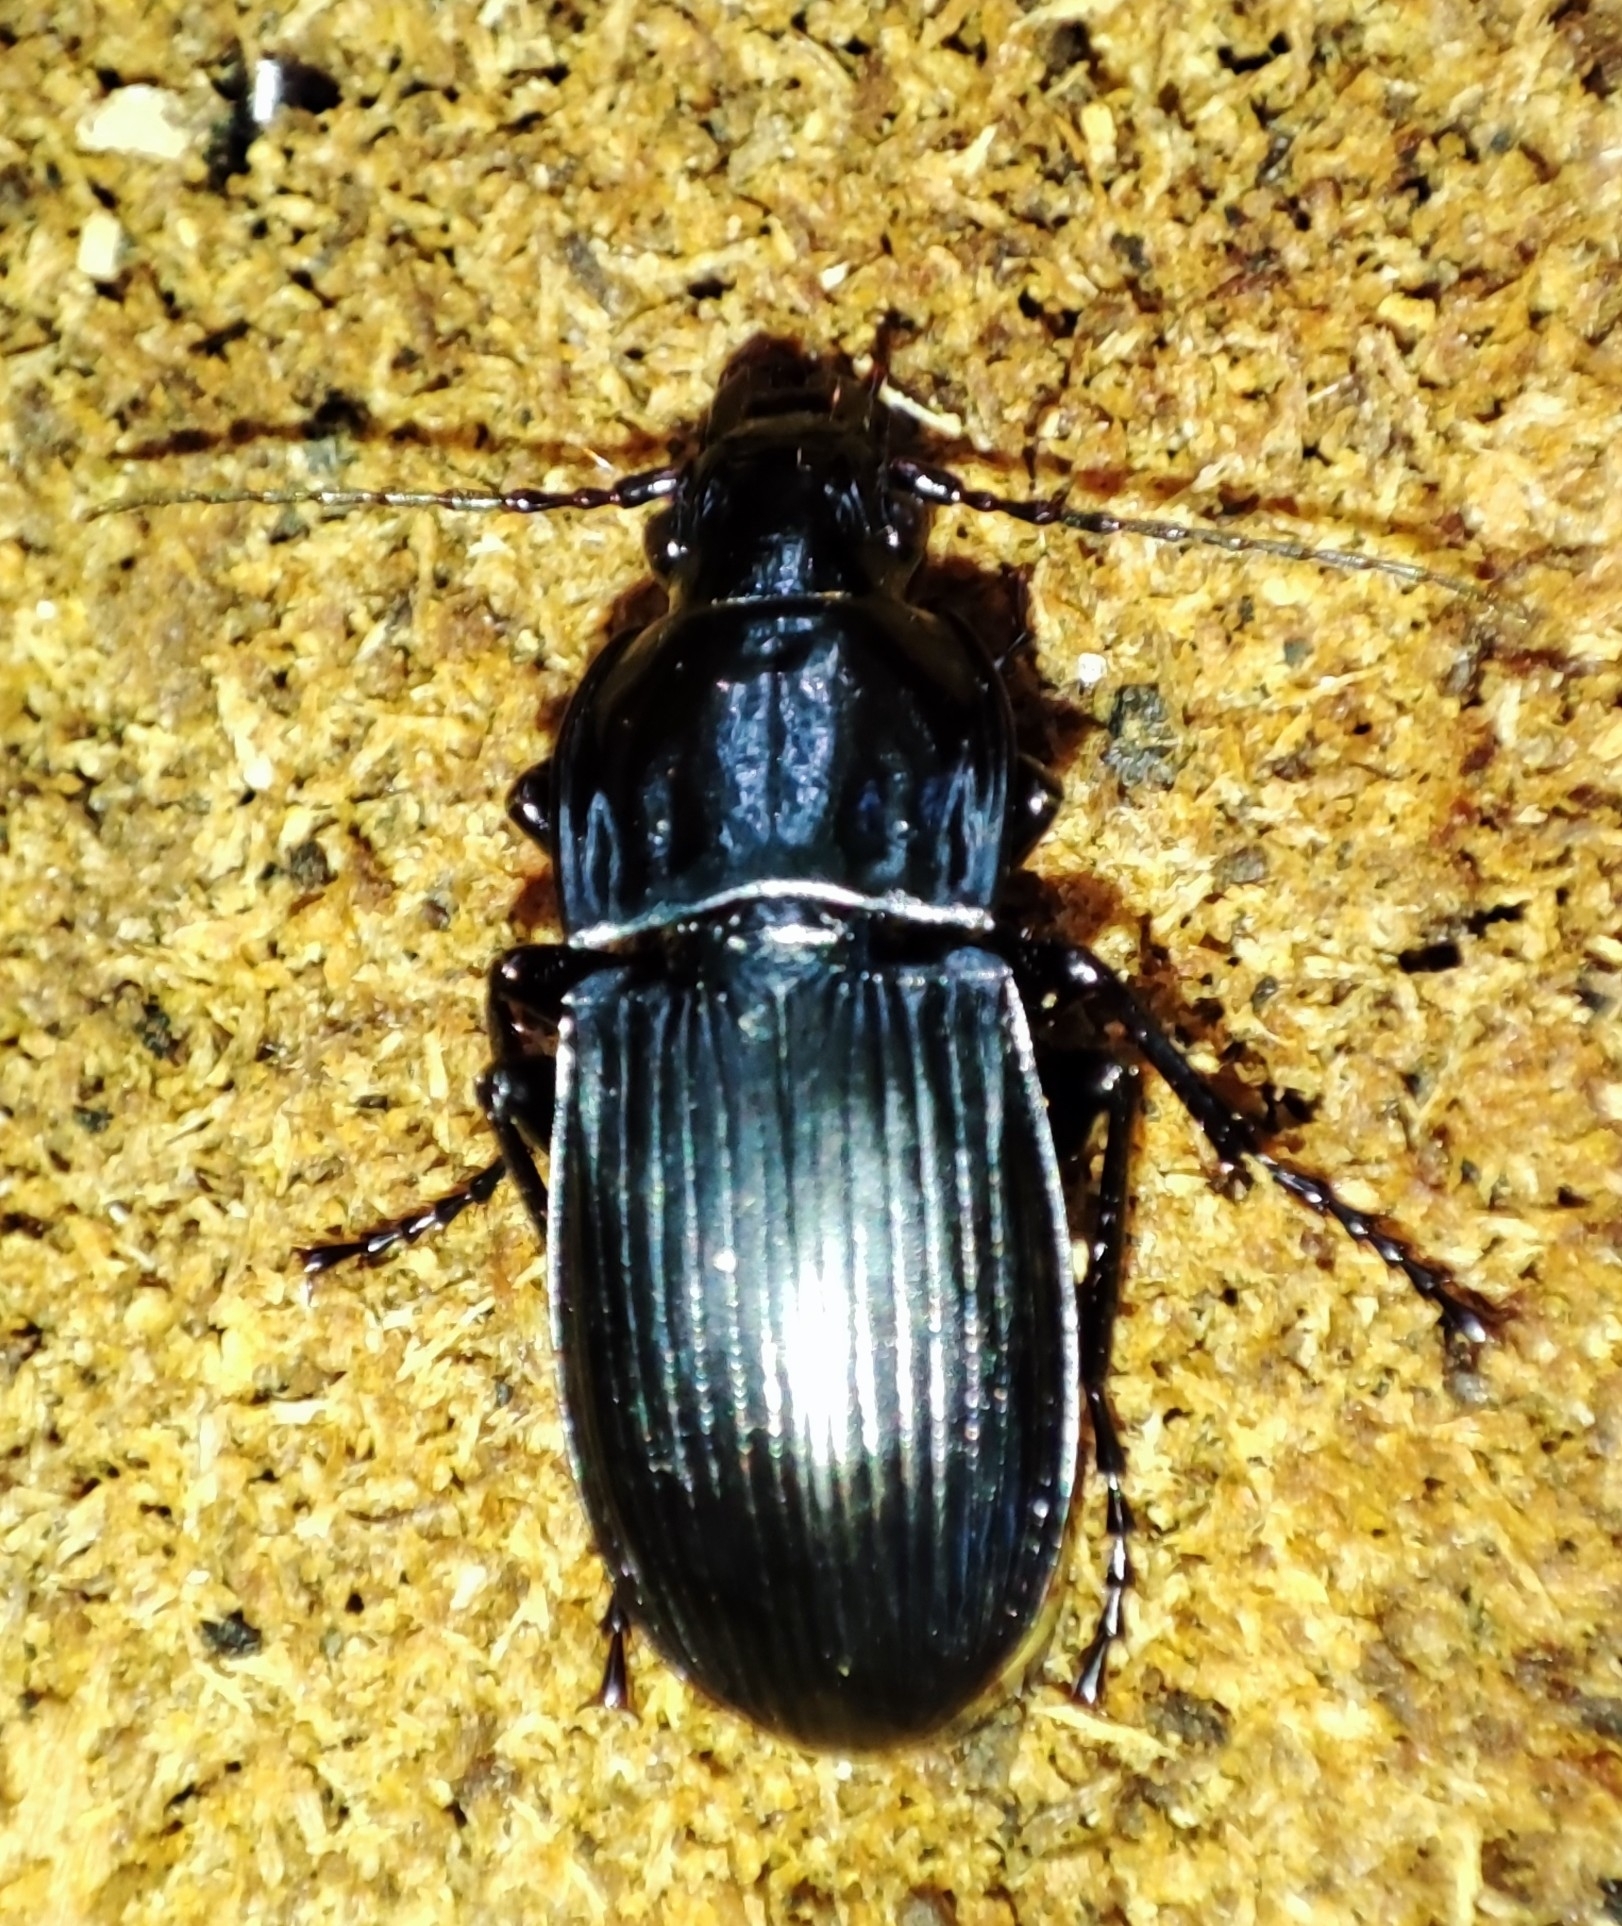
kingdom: Animalia
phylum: Arthropoda
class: Insecta
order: Coleoptera
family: Carabidae
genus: Abax
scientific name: Abax parallelepipedus
